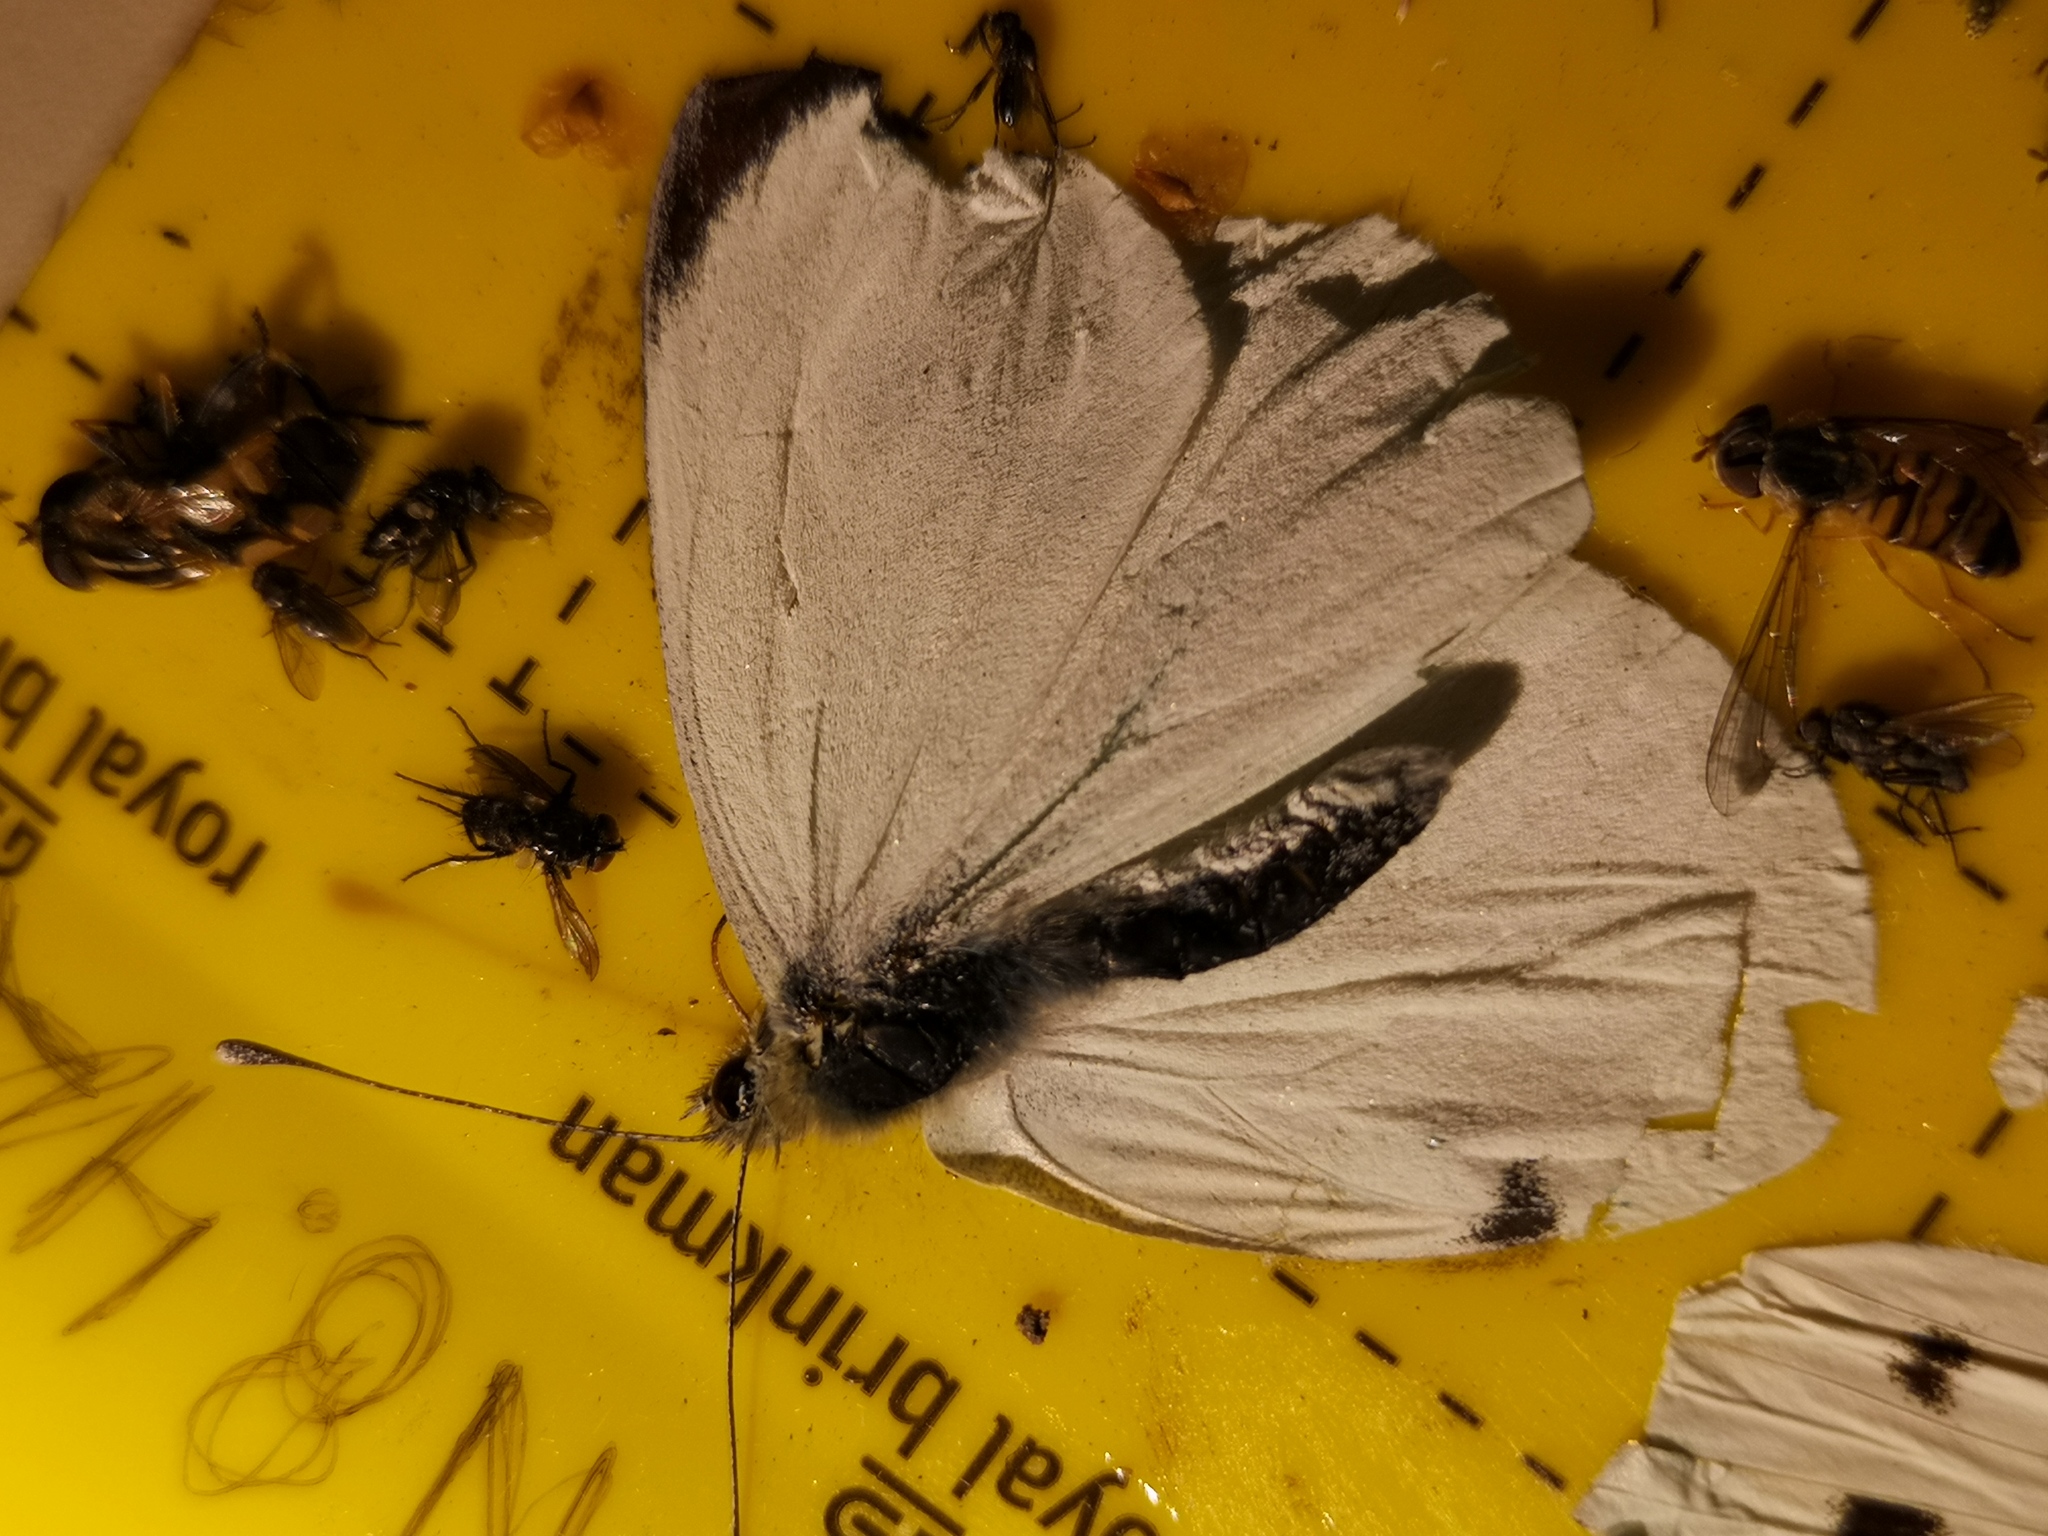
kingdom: Animalia
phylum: Arthropoda
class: Insecta
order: Lepidoptera
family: Pieridae
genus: Pieris
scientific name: Pieris brassicae
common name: Large white
